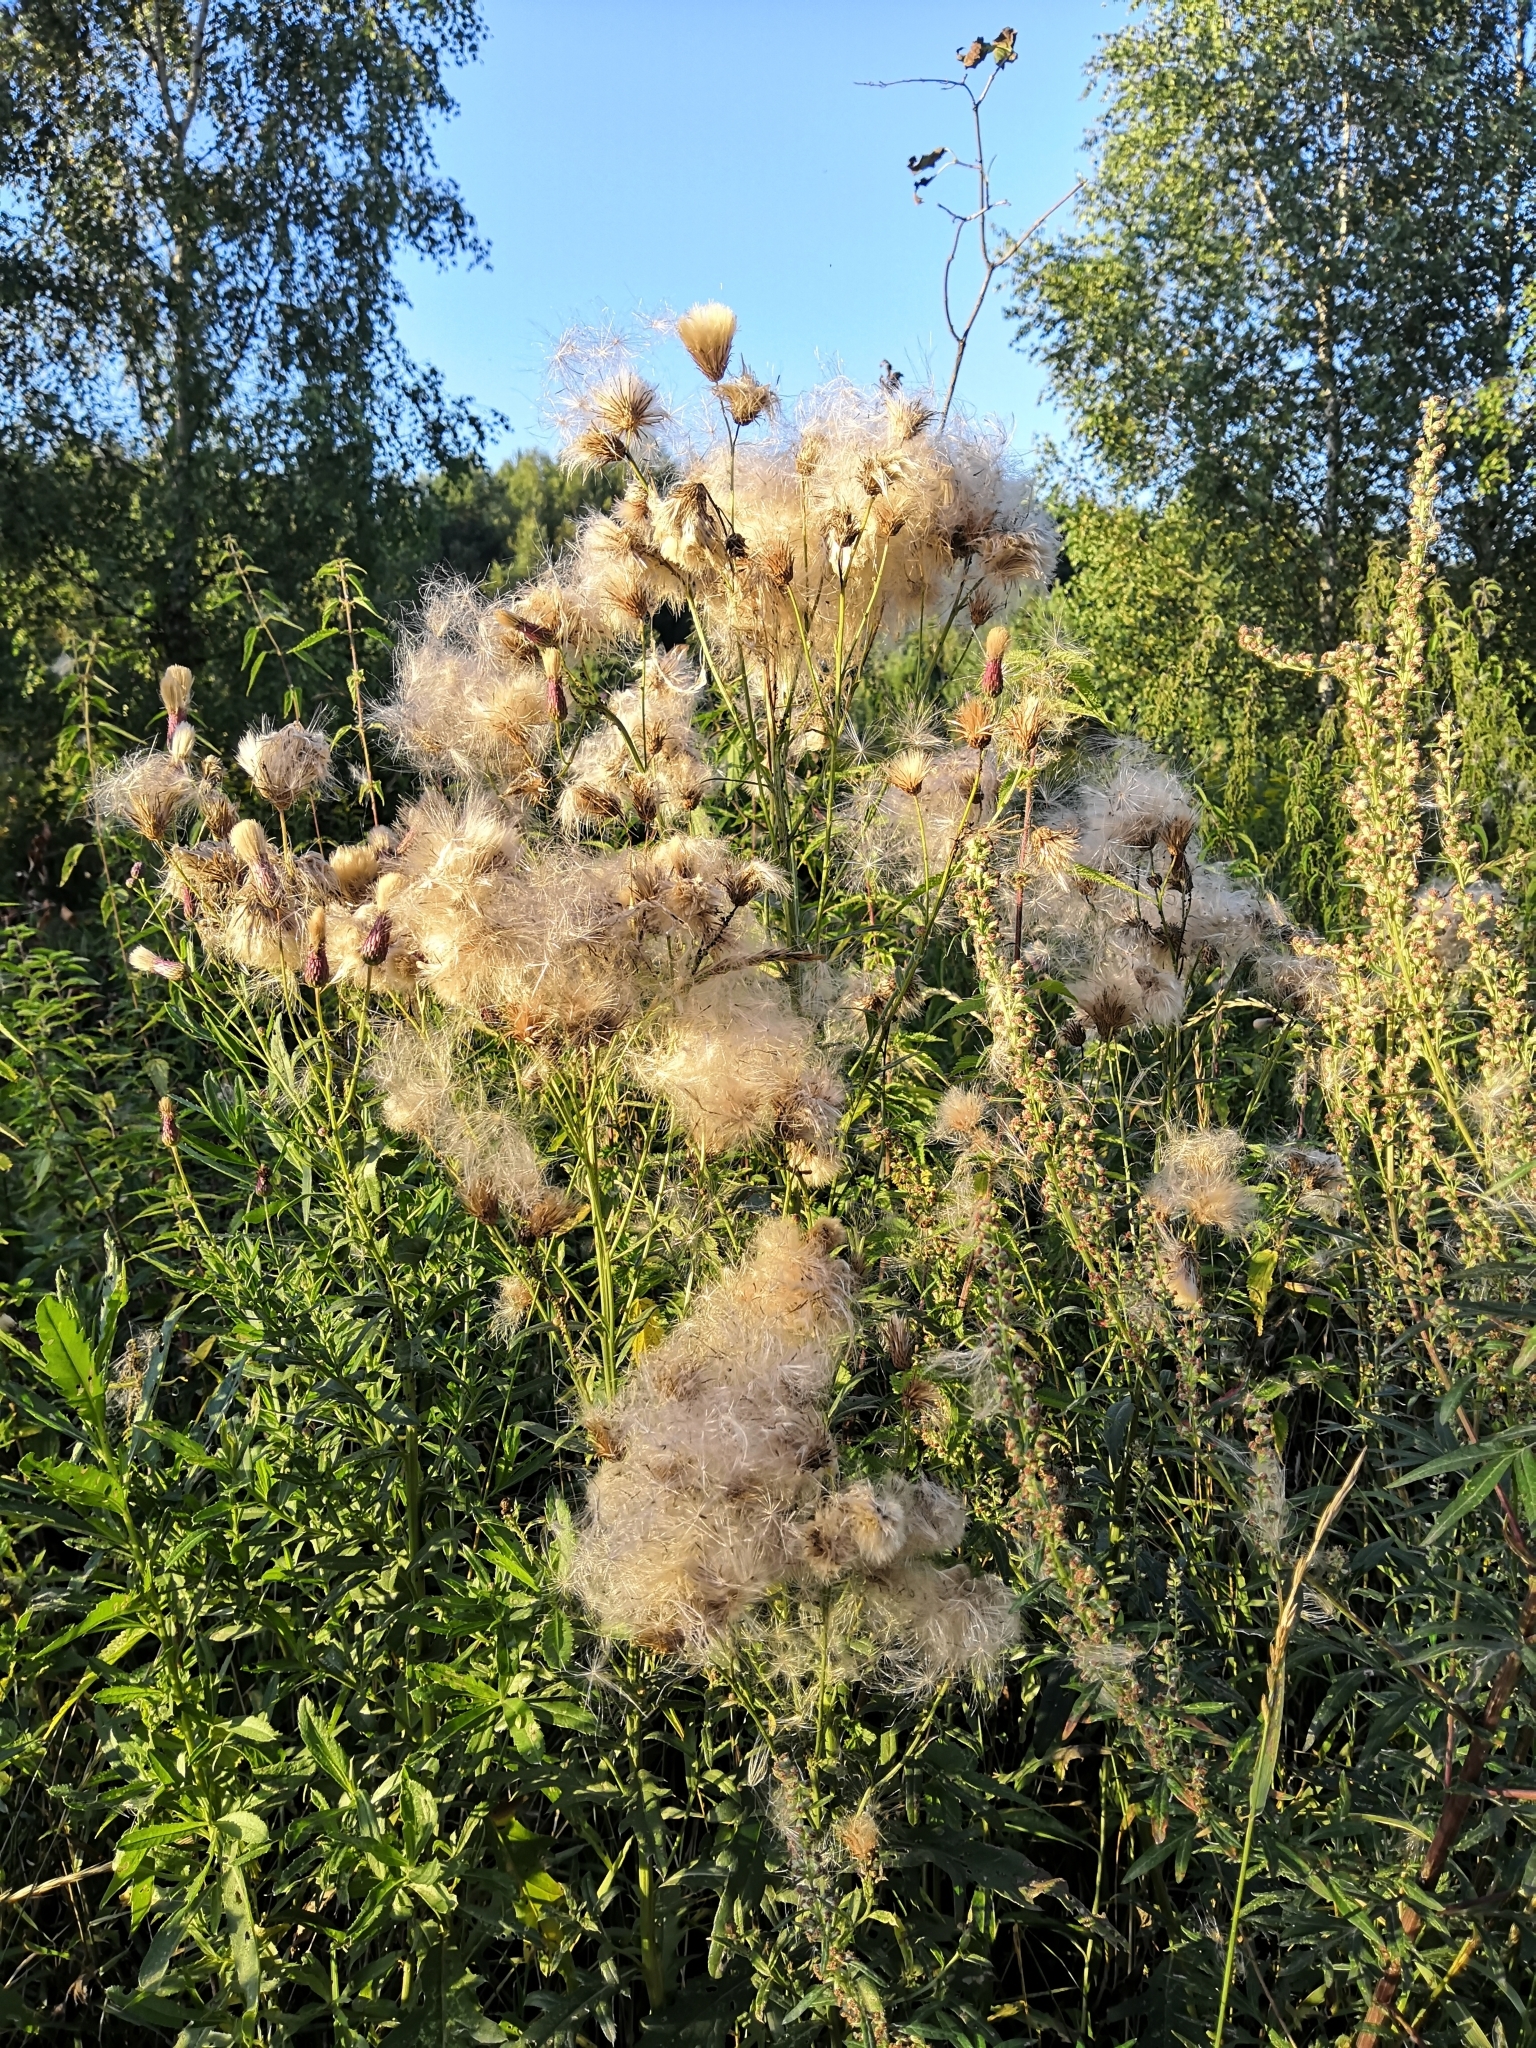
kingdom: Plantae
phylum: Tracheophyta
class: Magnoliopsida
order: Asterales
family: Asteraceae
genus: Cirsium
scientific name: Cirsium arvense
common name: Creeping thistle
